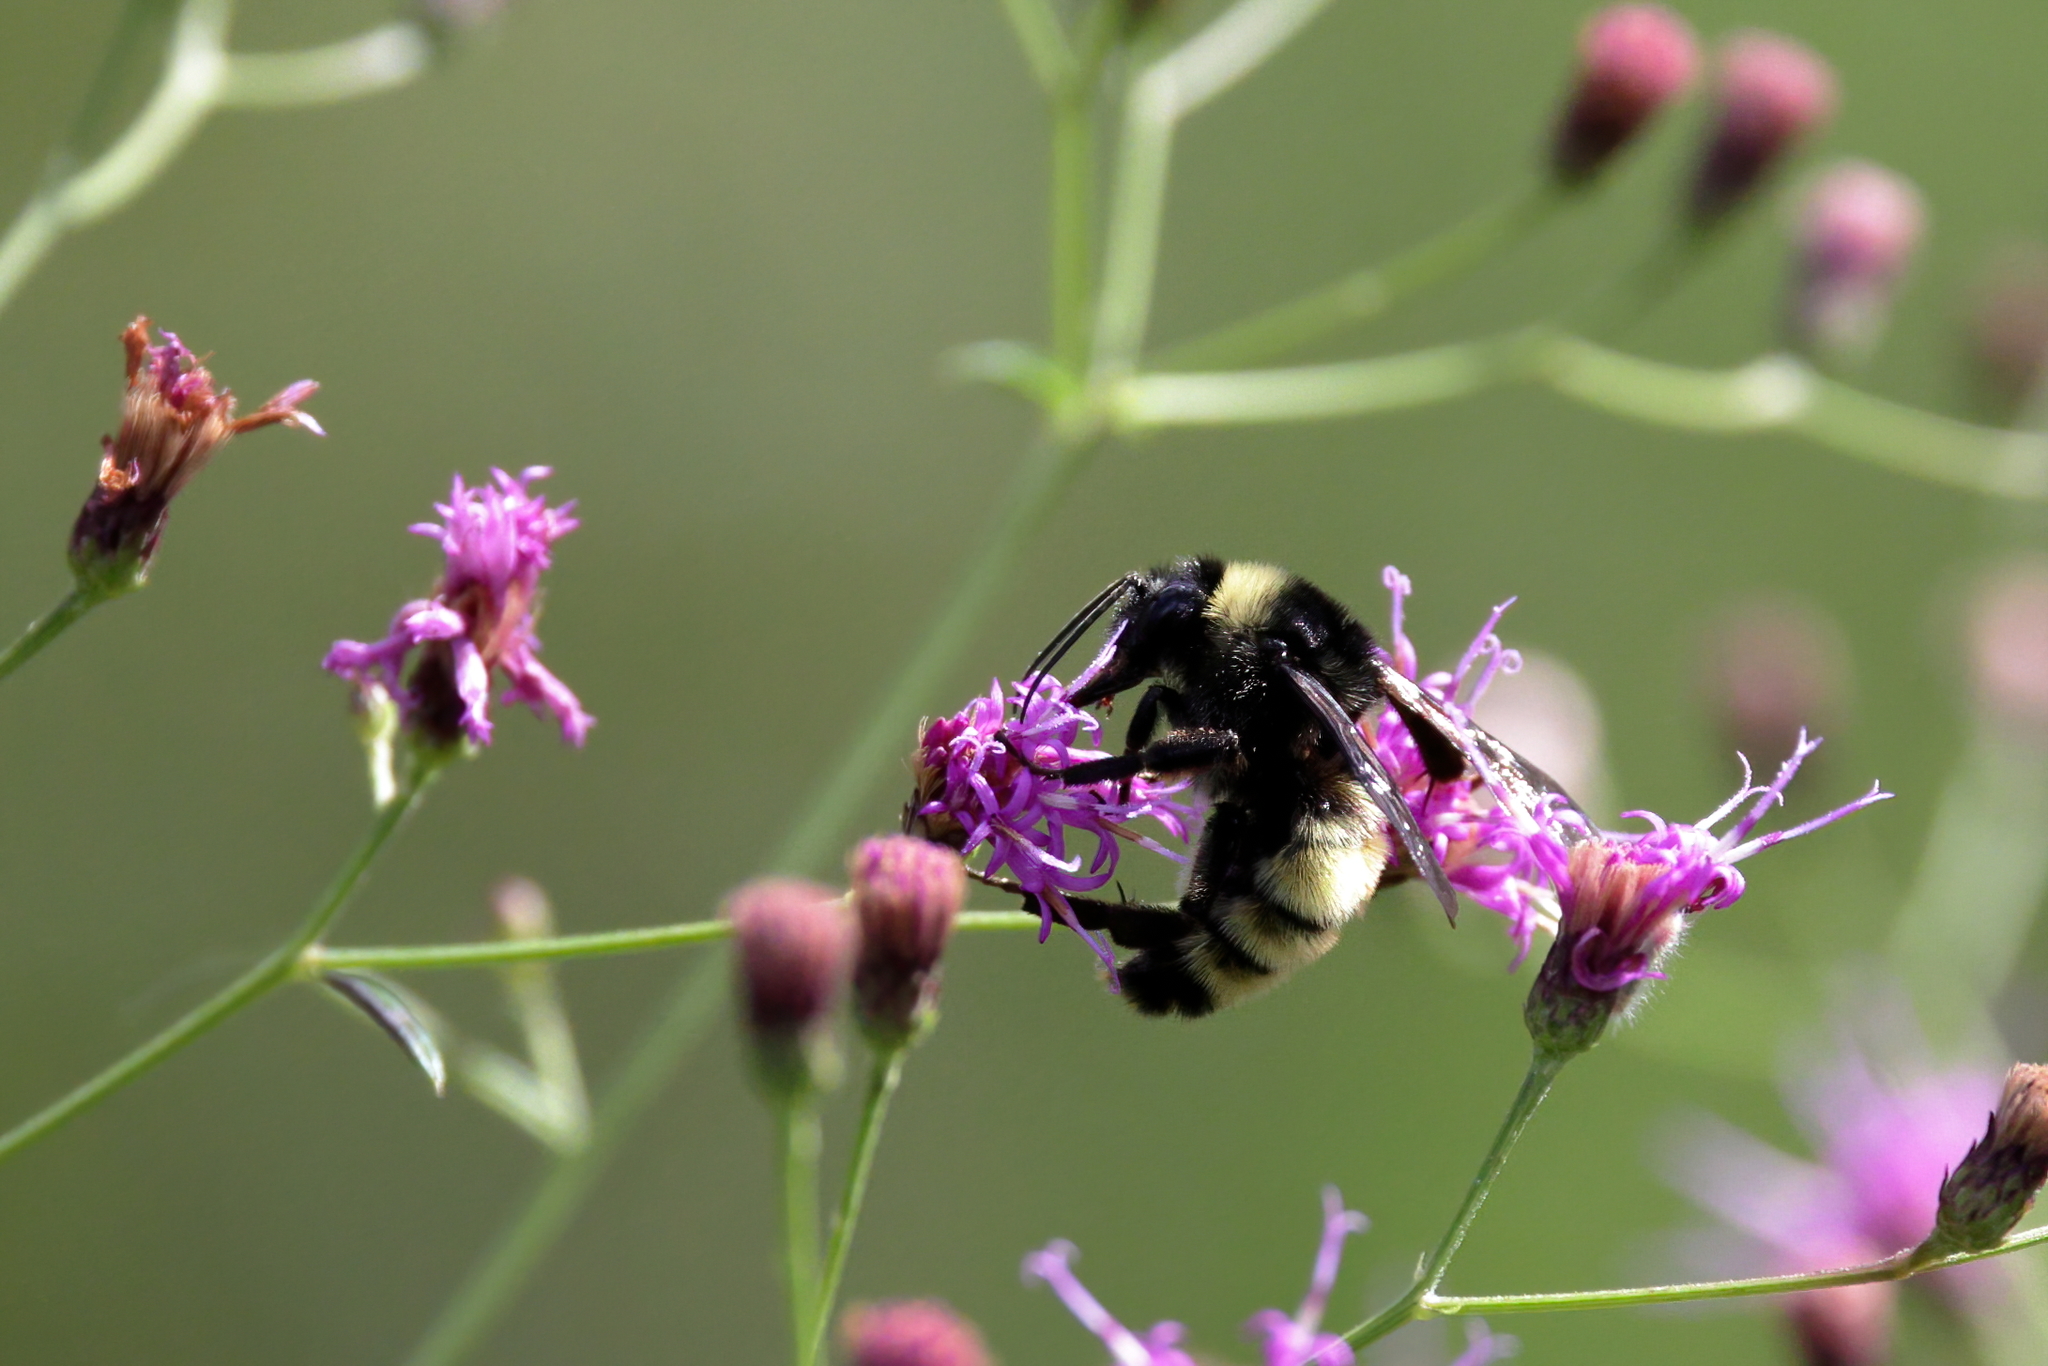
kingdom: Animalia
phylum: Arthropoda
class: Insecta
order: Hymenoptera
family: Apidae
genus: Bombus
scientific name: Bombus pensylvanicus
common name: Bumble bee
